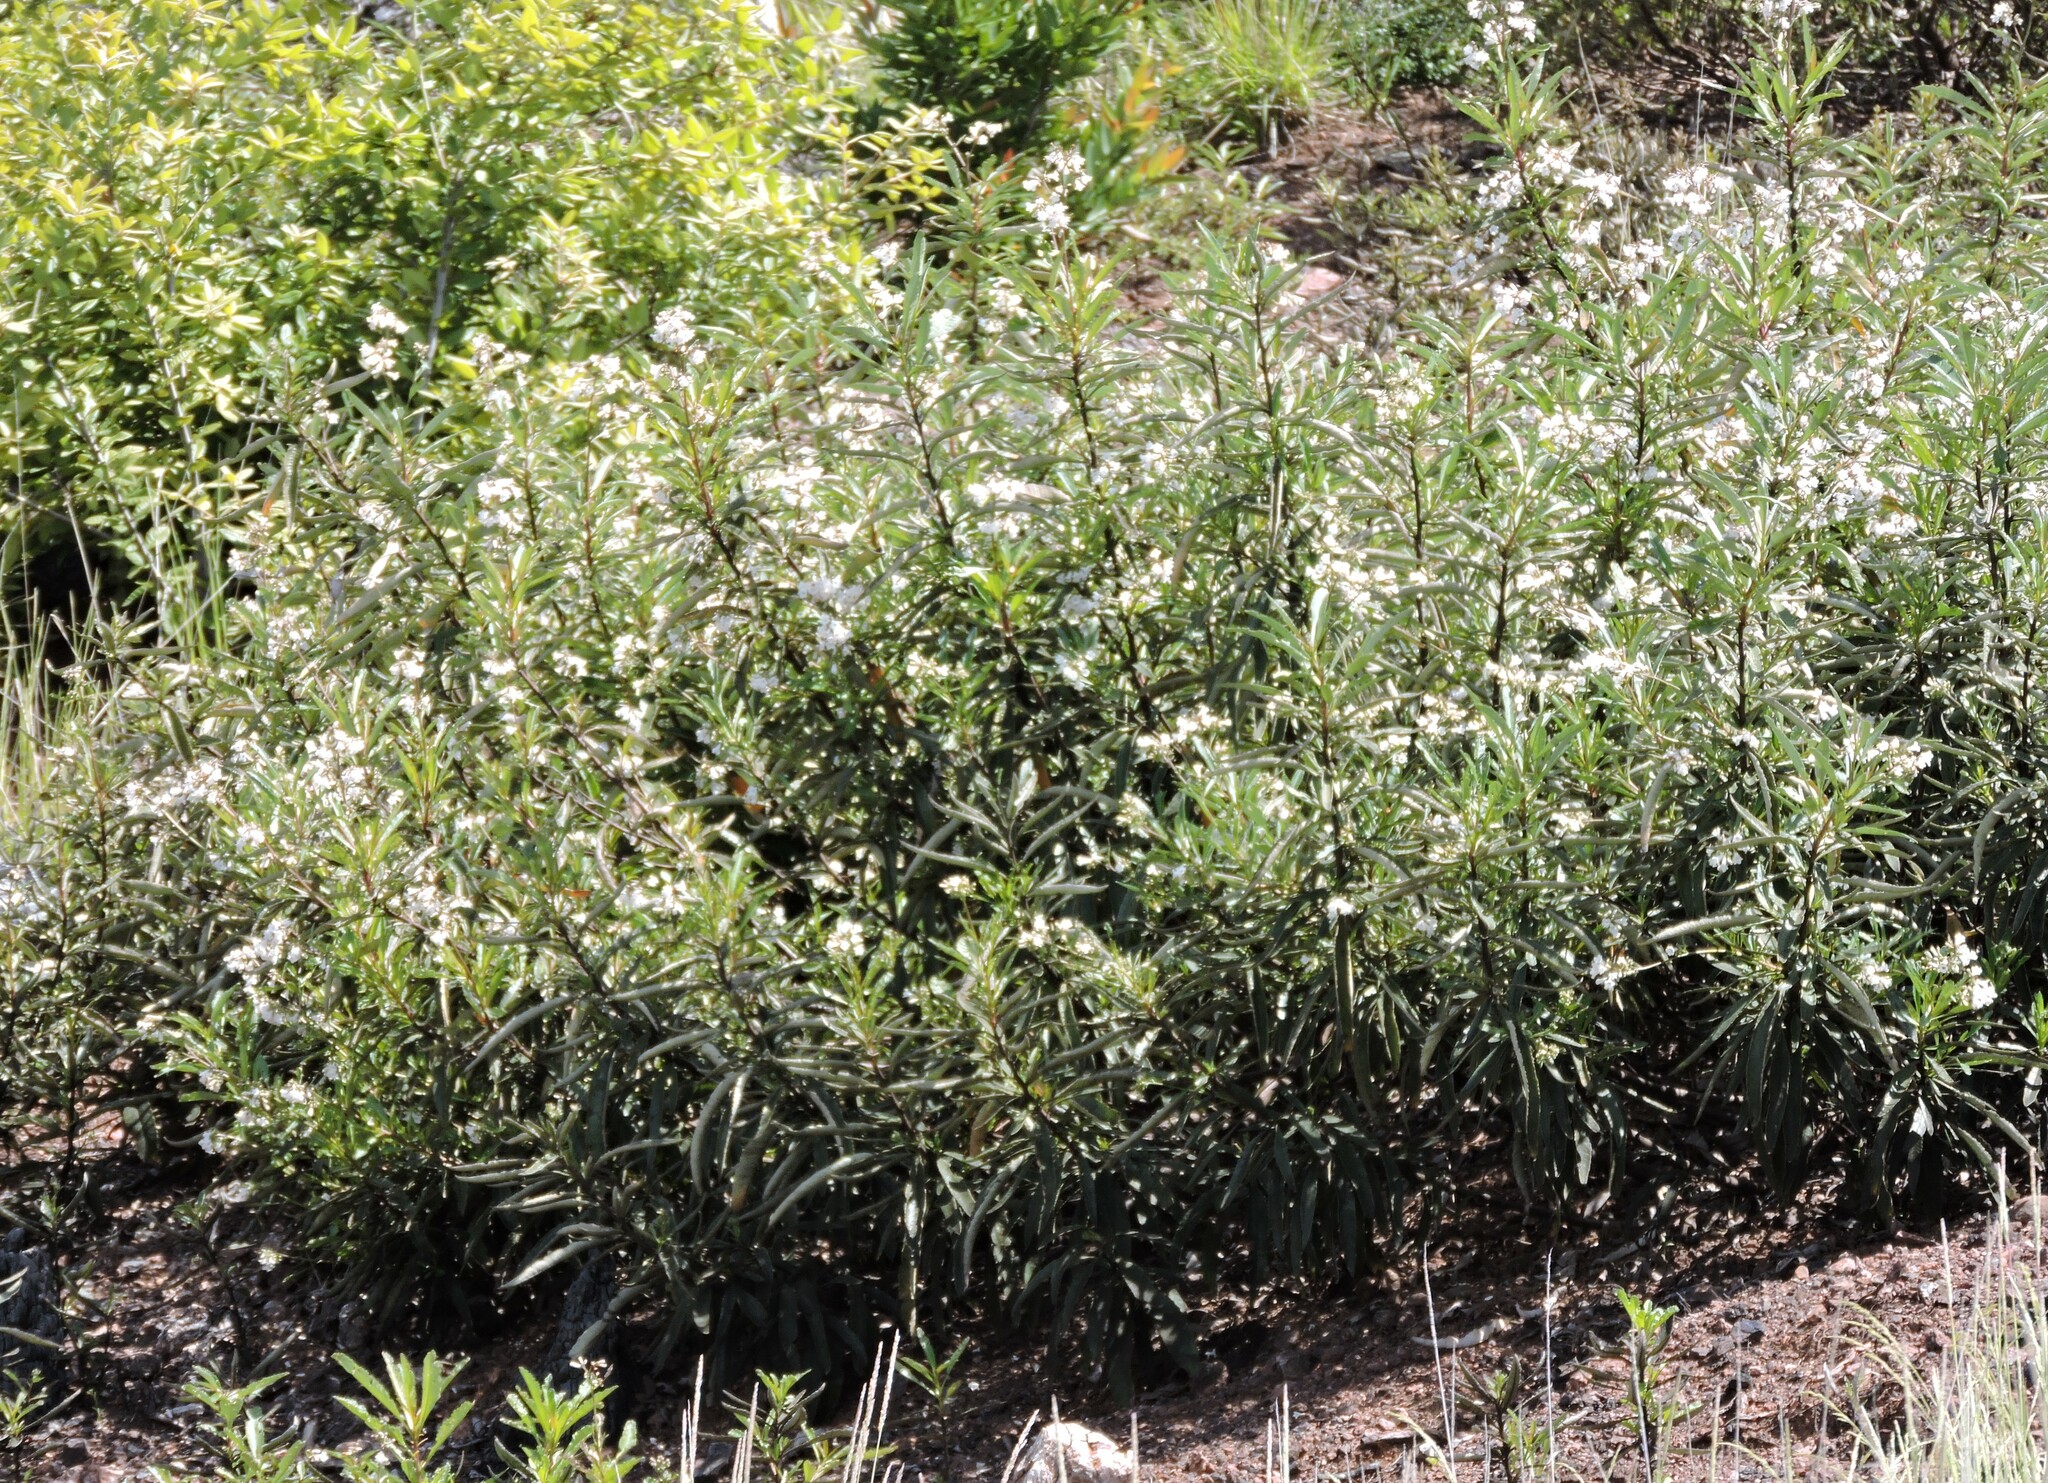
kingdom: Plantae
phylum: Tracheophyta
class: Magnoliopsida
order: Boraginales
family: Namaceae
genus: Eriodictyon
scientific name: Eriodictyon californicum
